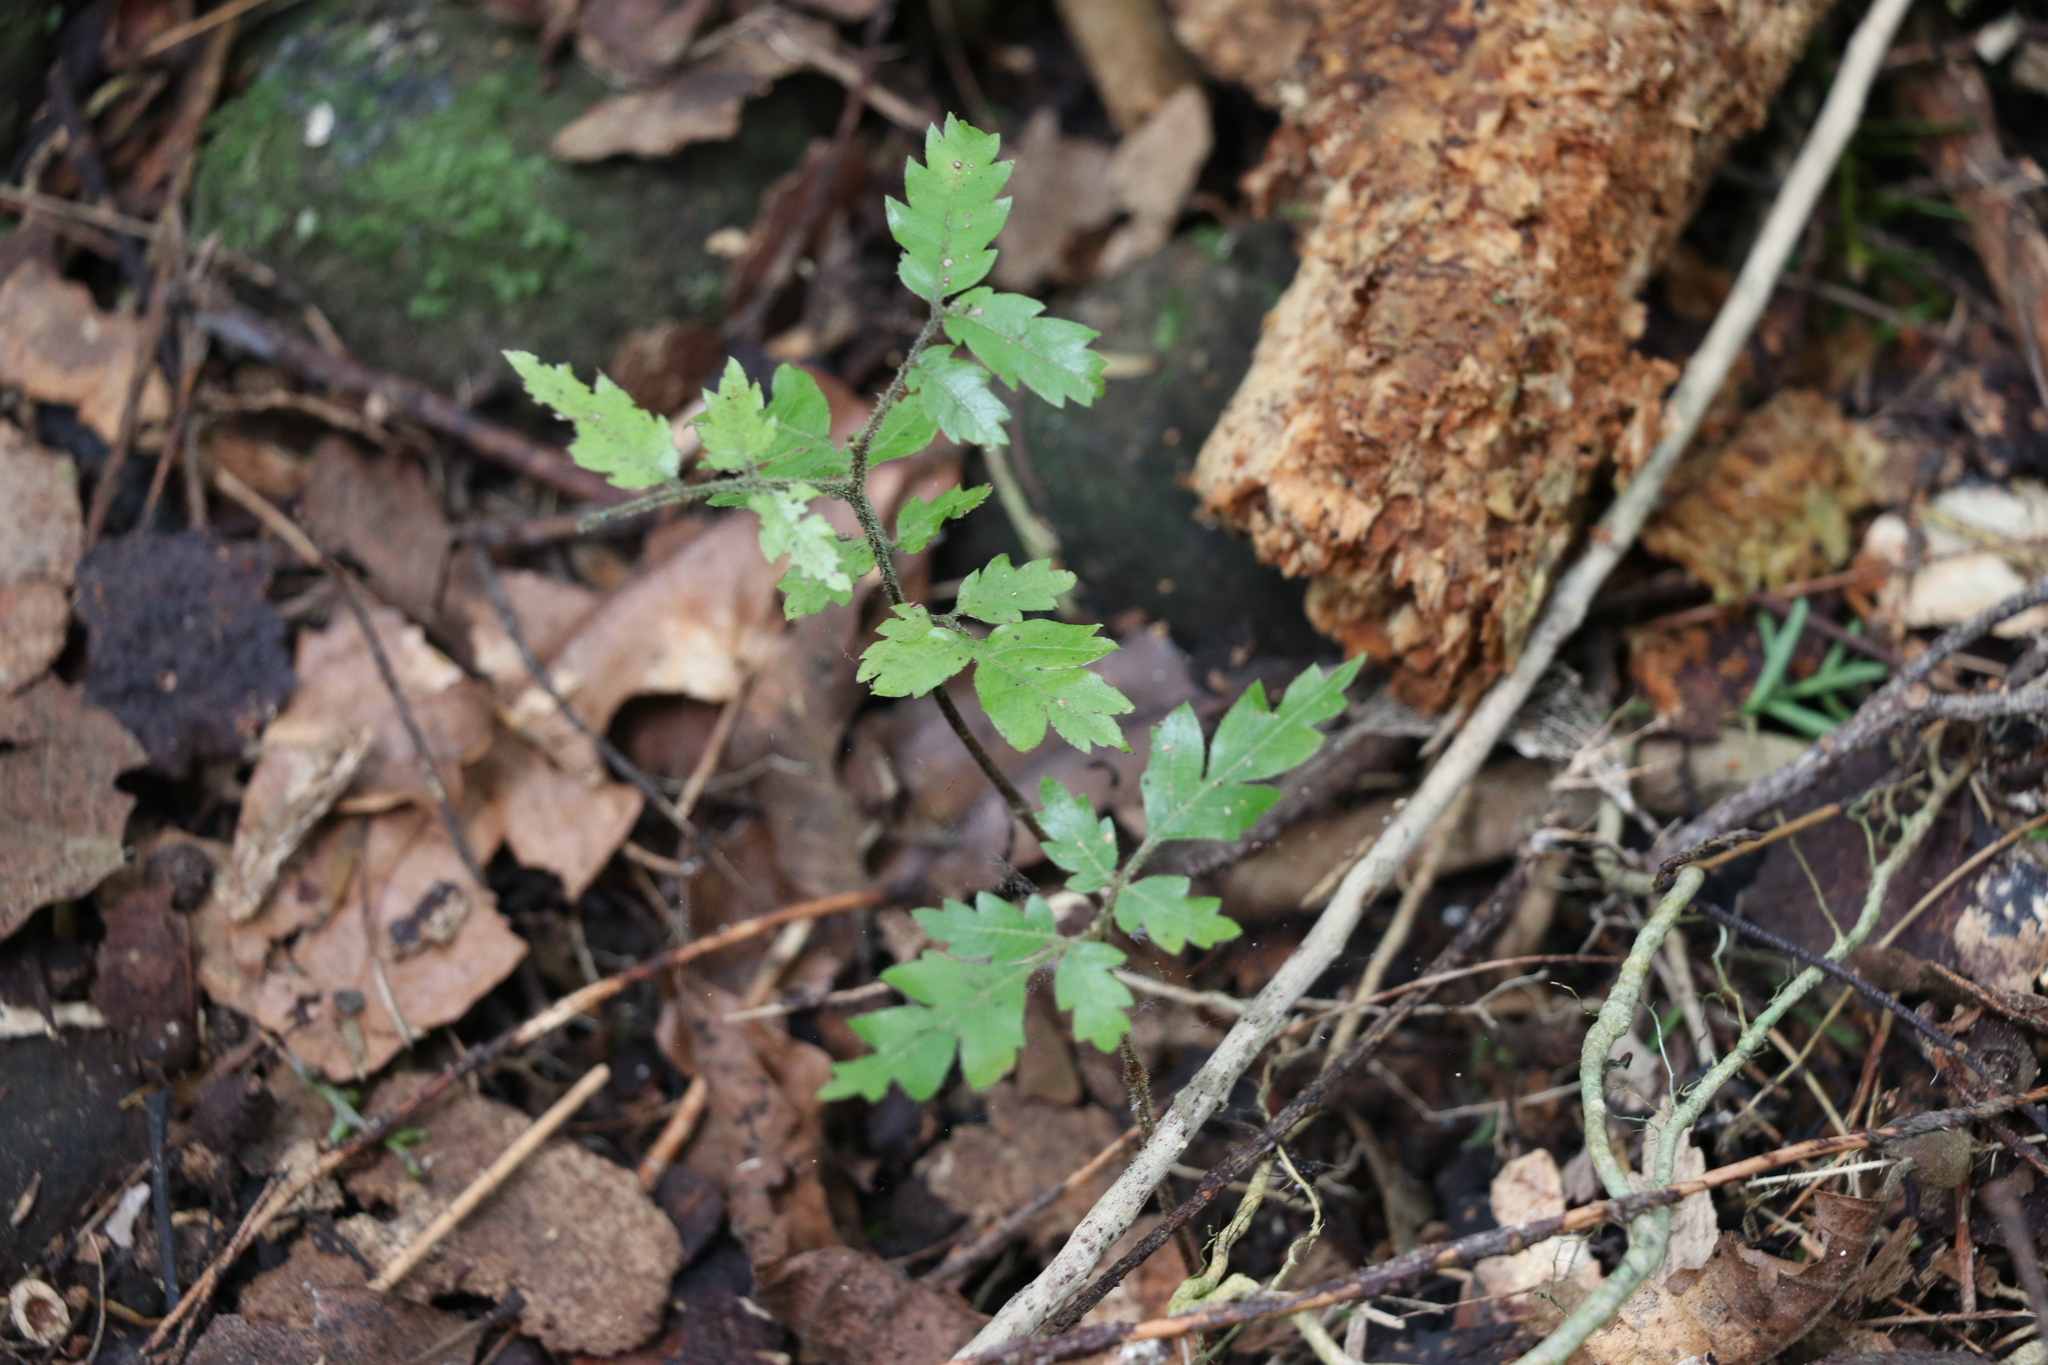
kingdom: Plantae
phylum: Tracheophyta
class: Magnoliopsida
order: Sapindales
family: Sapindaceae
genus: Alectryon
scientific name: Alectryon excelsus
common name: Three kings titoki
